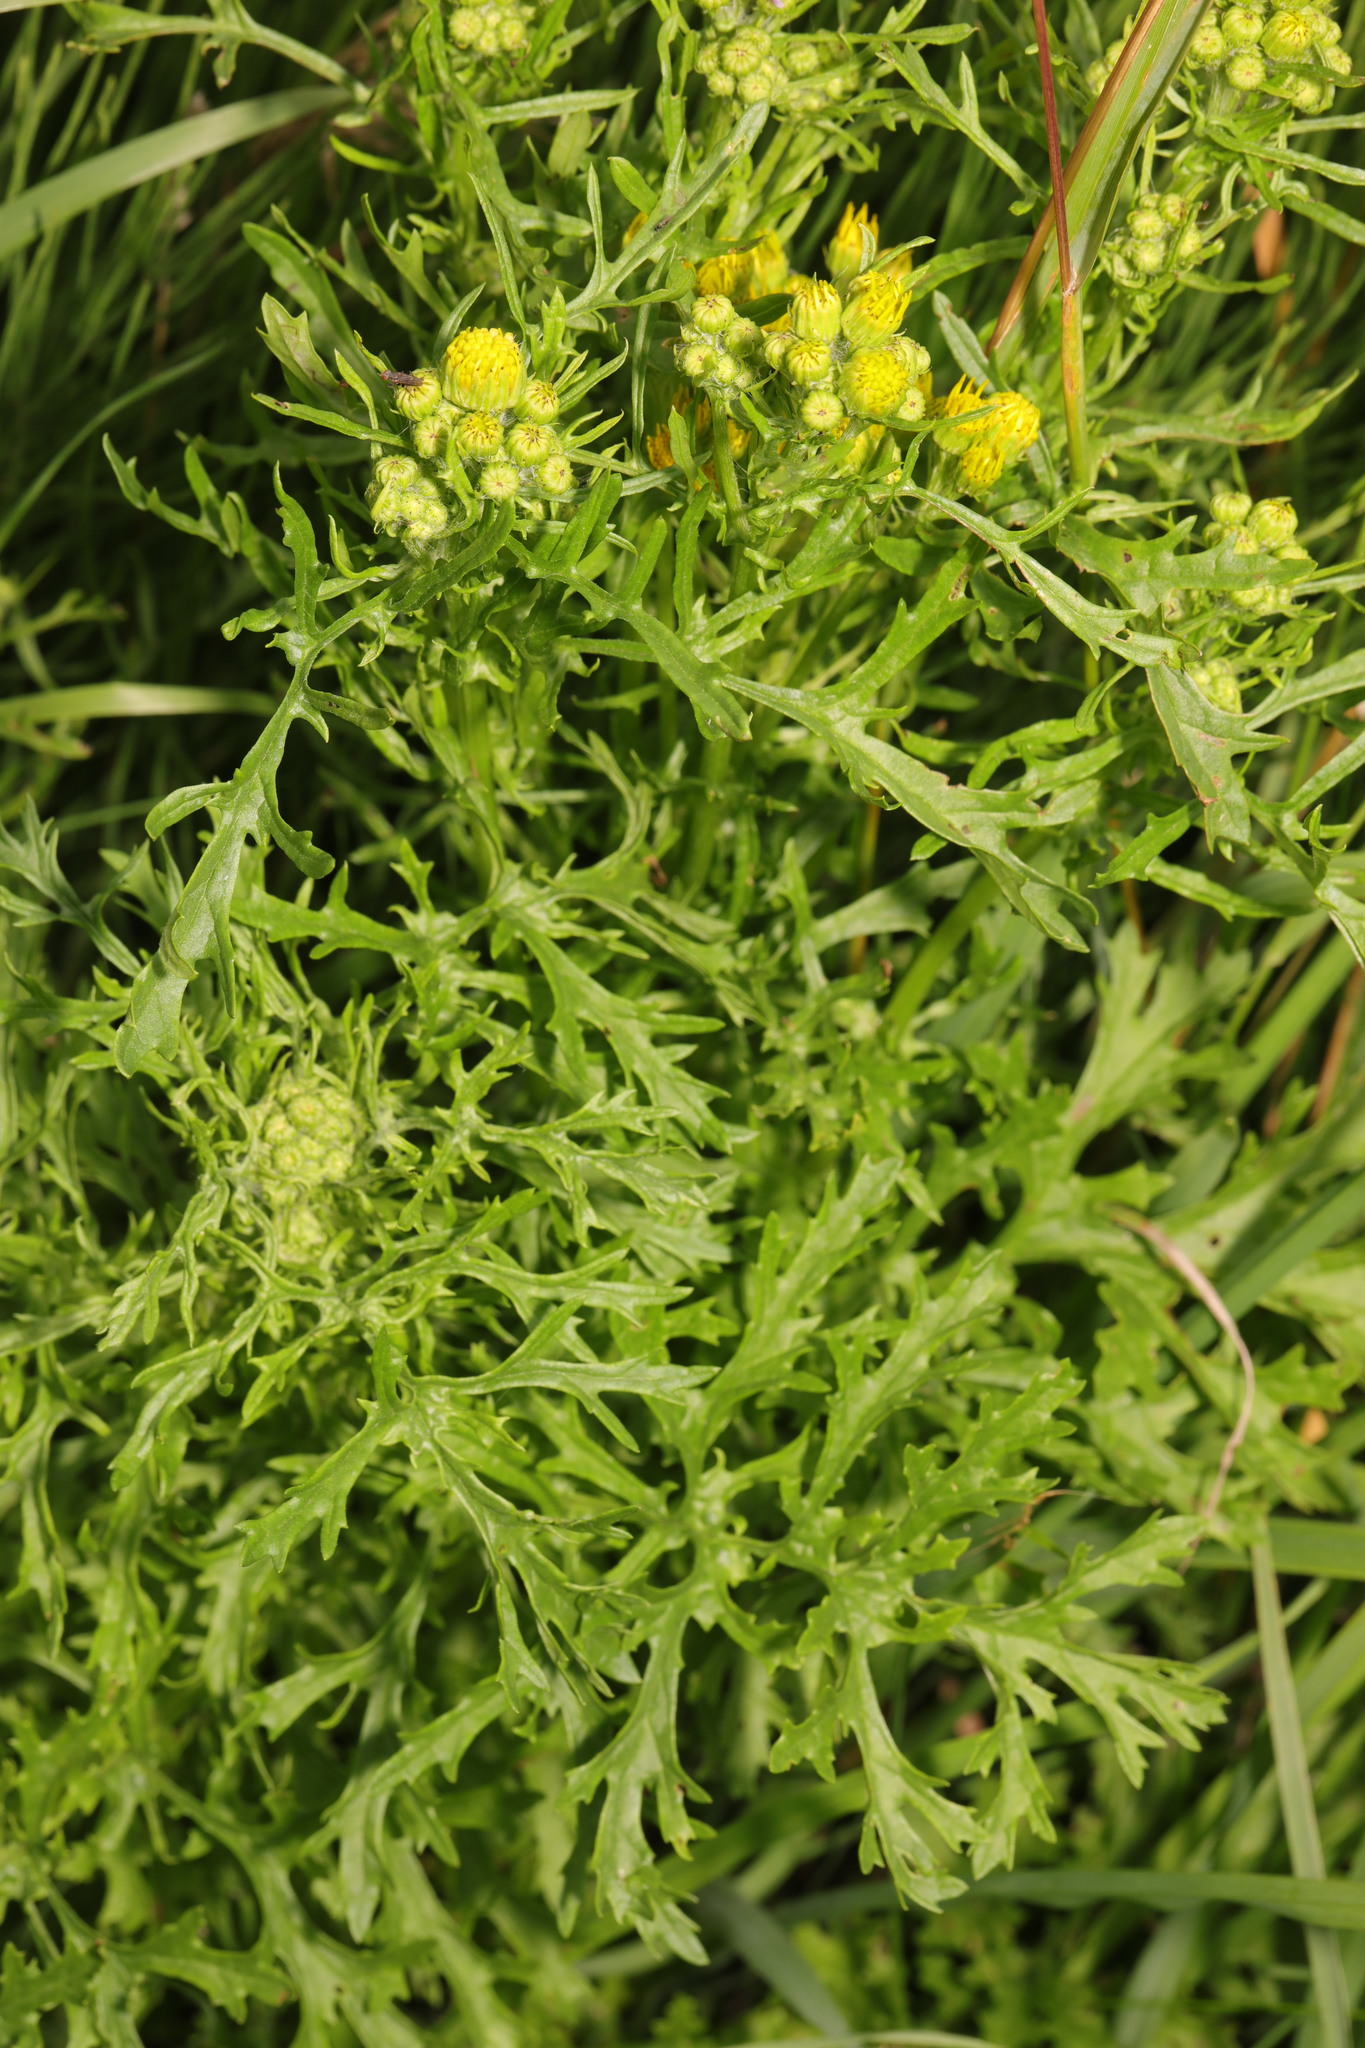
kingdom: Plantae
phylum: Tracheophyta
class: Magnoliopsida
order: Asterales
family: Asteraceae
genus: Jacobaea
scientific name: Jacobaea erucifolia
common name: Hoary ragwort
